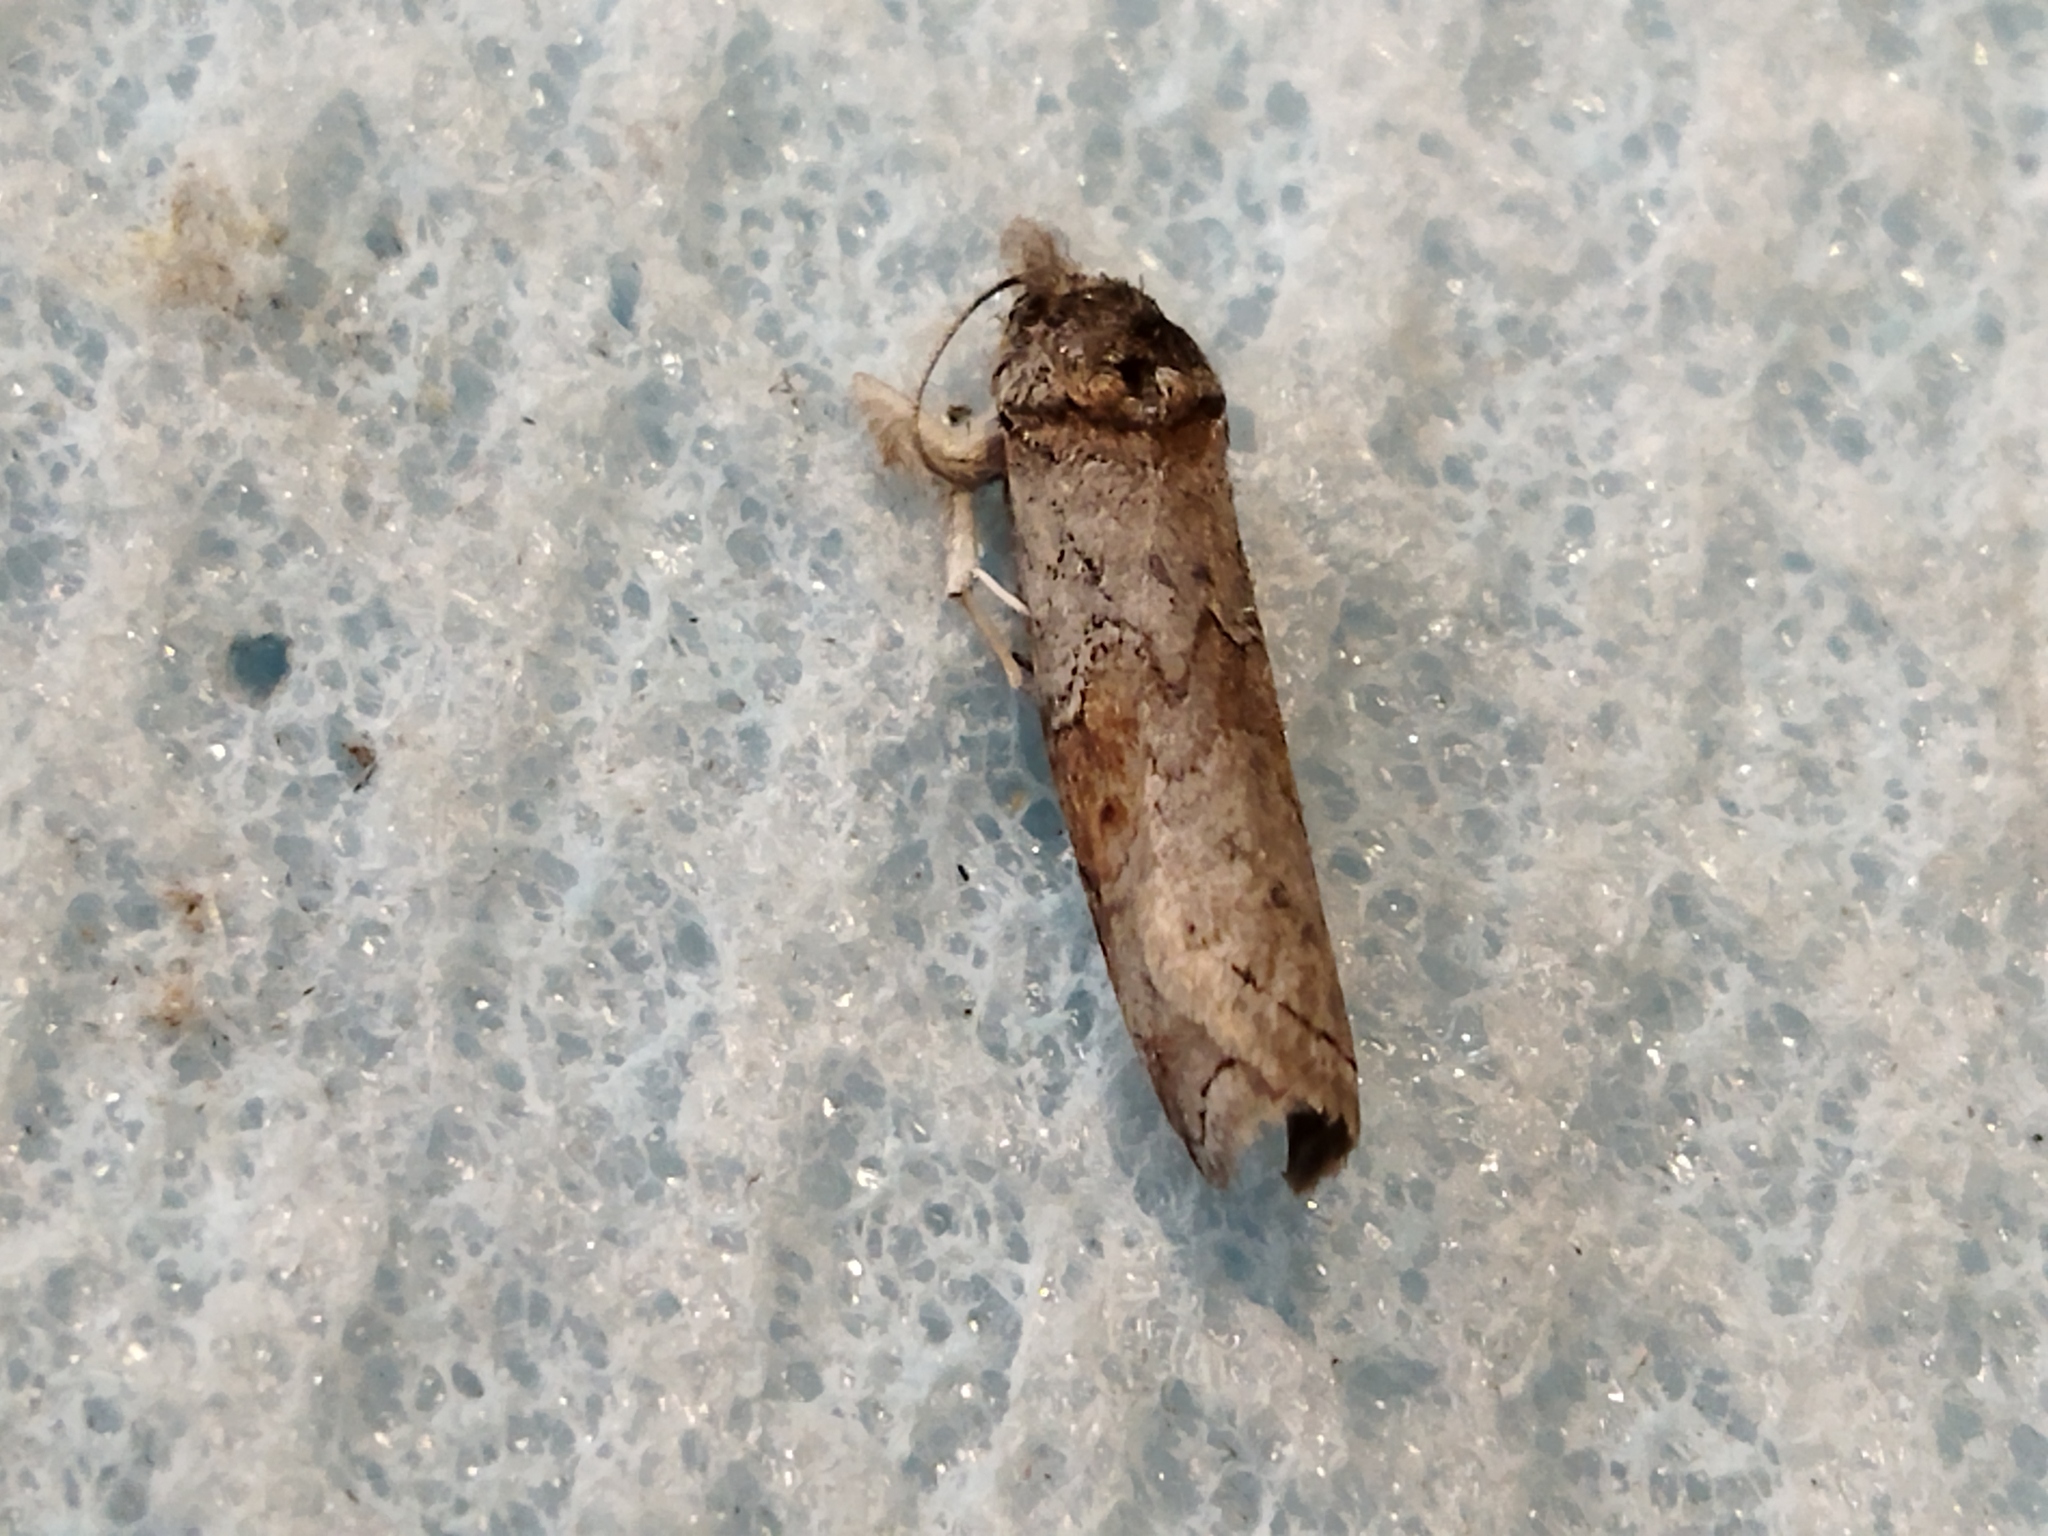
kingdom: Animalia
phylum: Arthropoda
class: Insecta
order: Lepidoptera
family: Nolidae
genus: Nycteola
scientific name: Nycteola asiatica
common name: Eastern nycteoline
